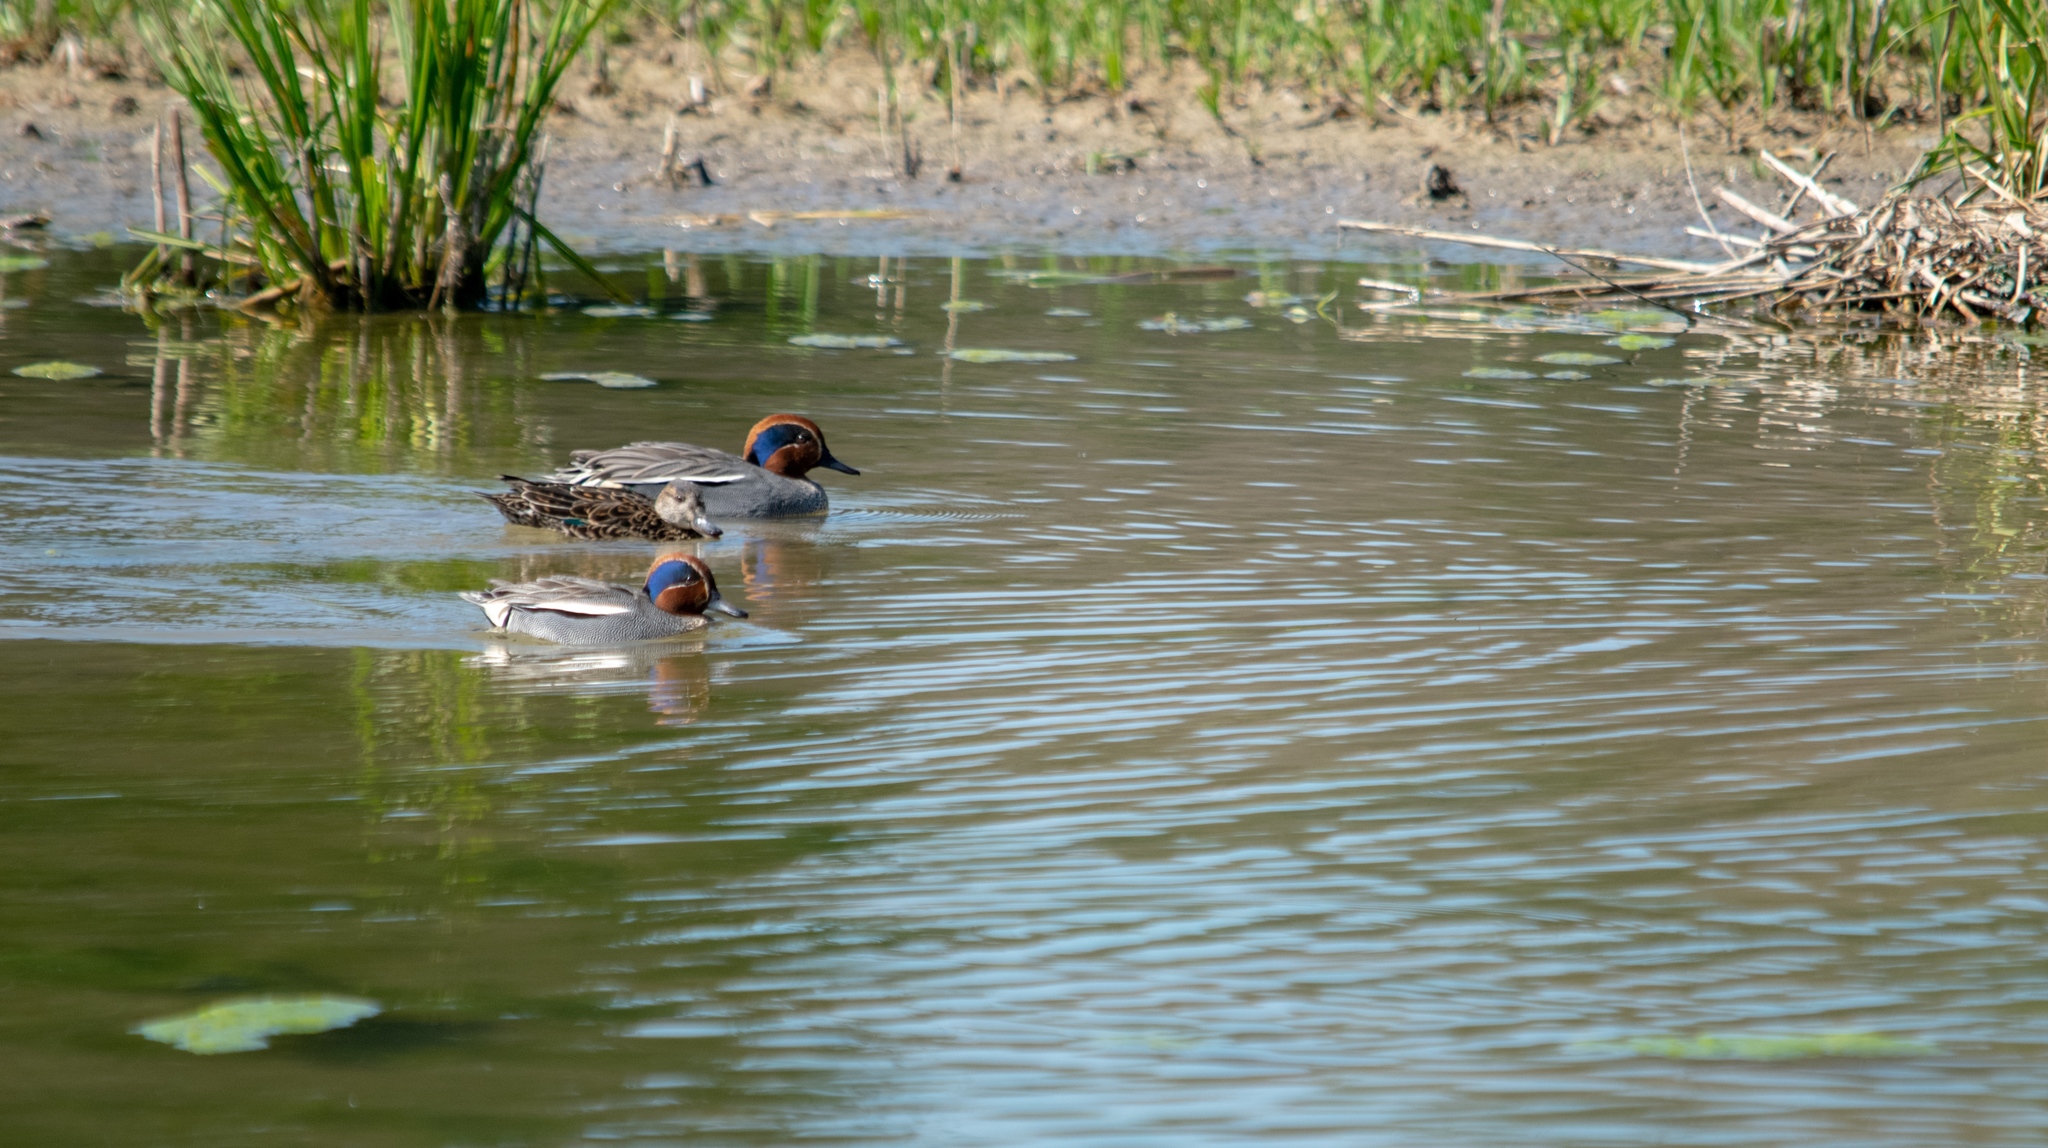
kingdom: Animalia
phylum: Chordata
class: Aves
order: Anseriformes
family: Anatidae
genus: Anas
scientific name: Anas crecca
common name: Eurasian teal
